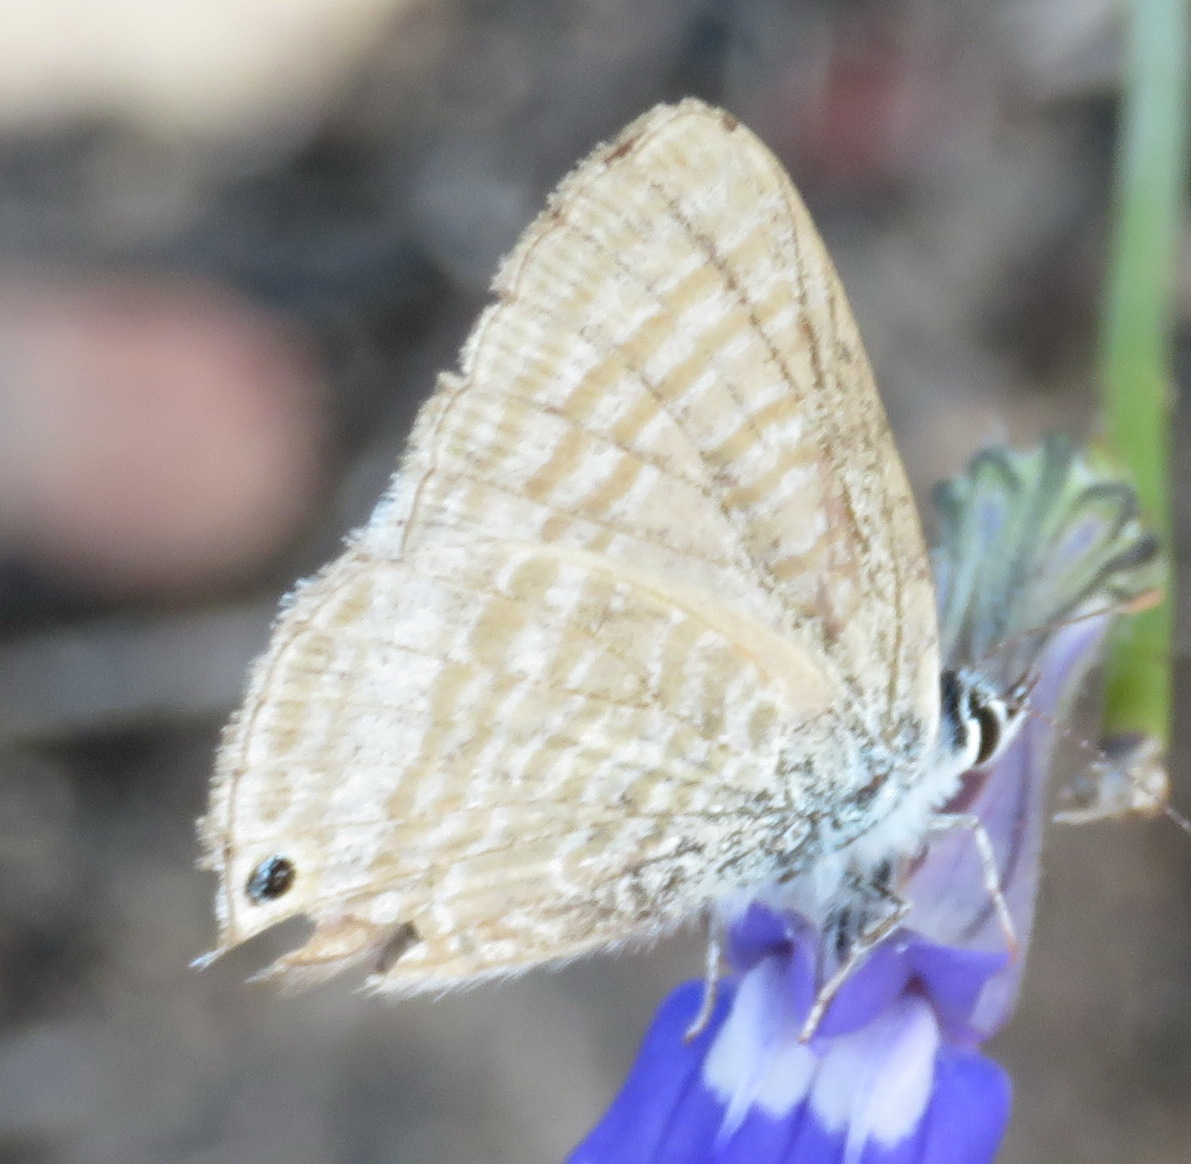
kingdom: Animalia
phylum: Arthropoda
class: Insecta
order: Lepidoptera
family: Lycaenidae
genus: Lampides
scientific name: Lampides boeticus
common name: Long-tailed blue
